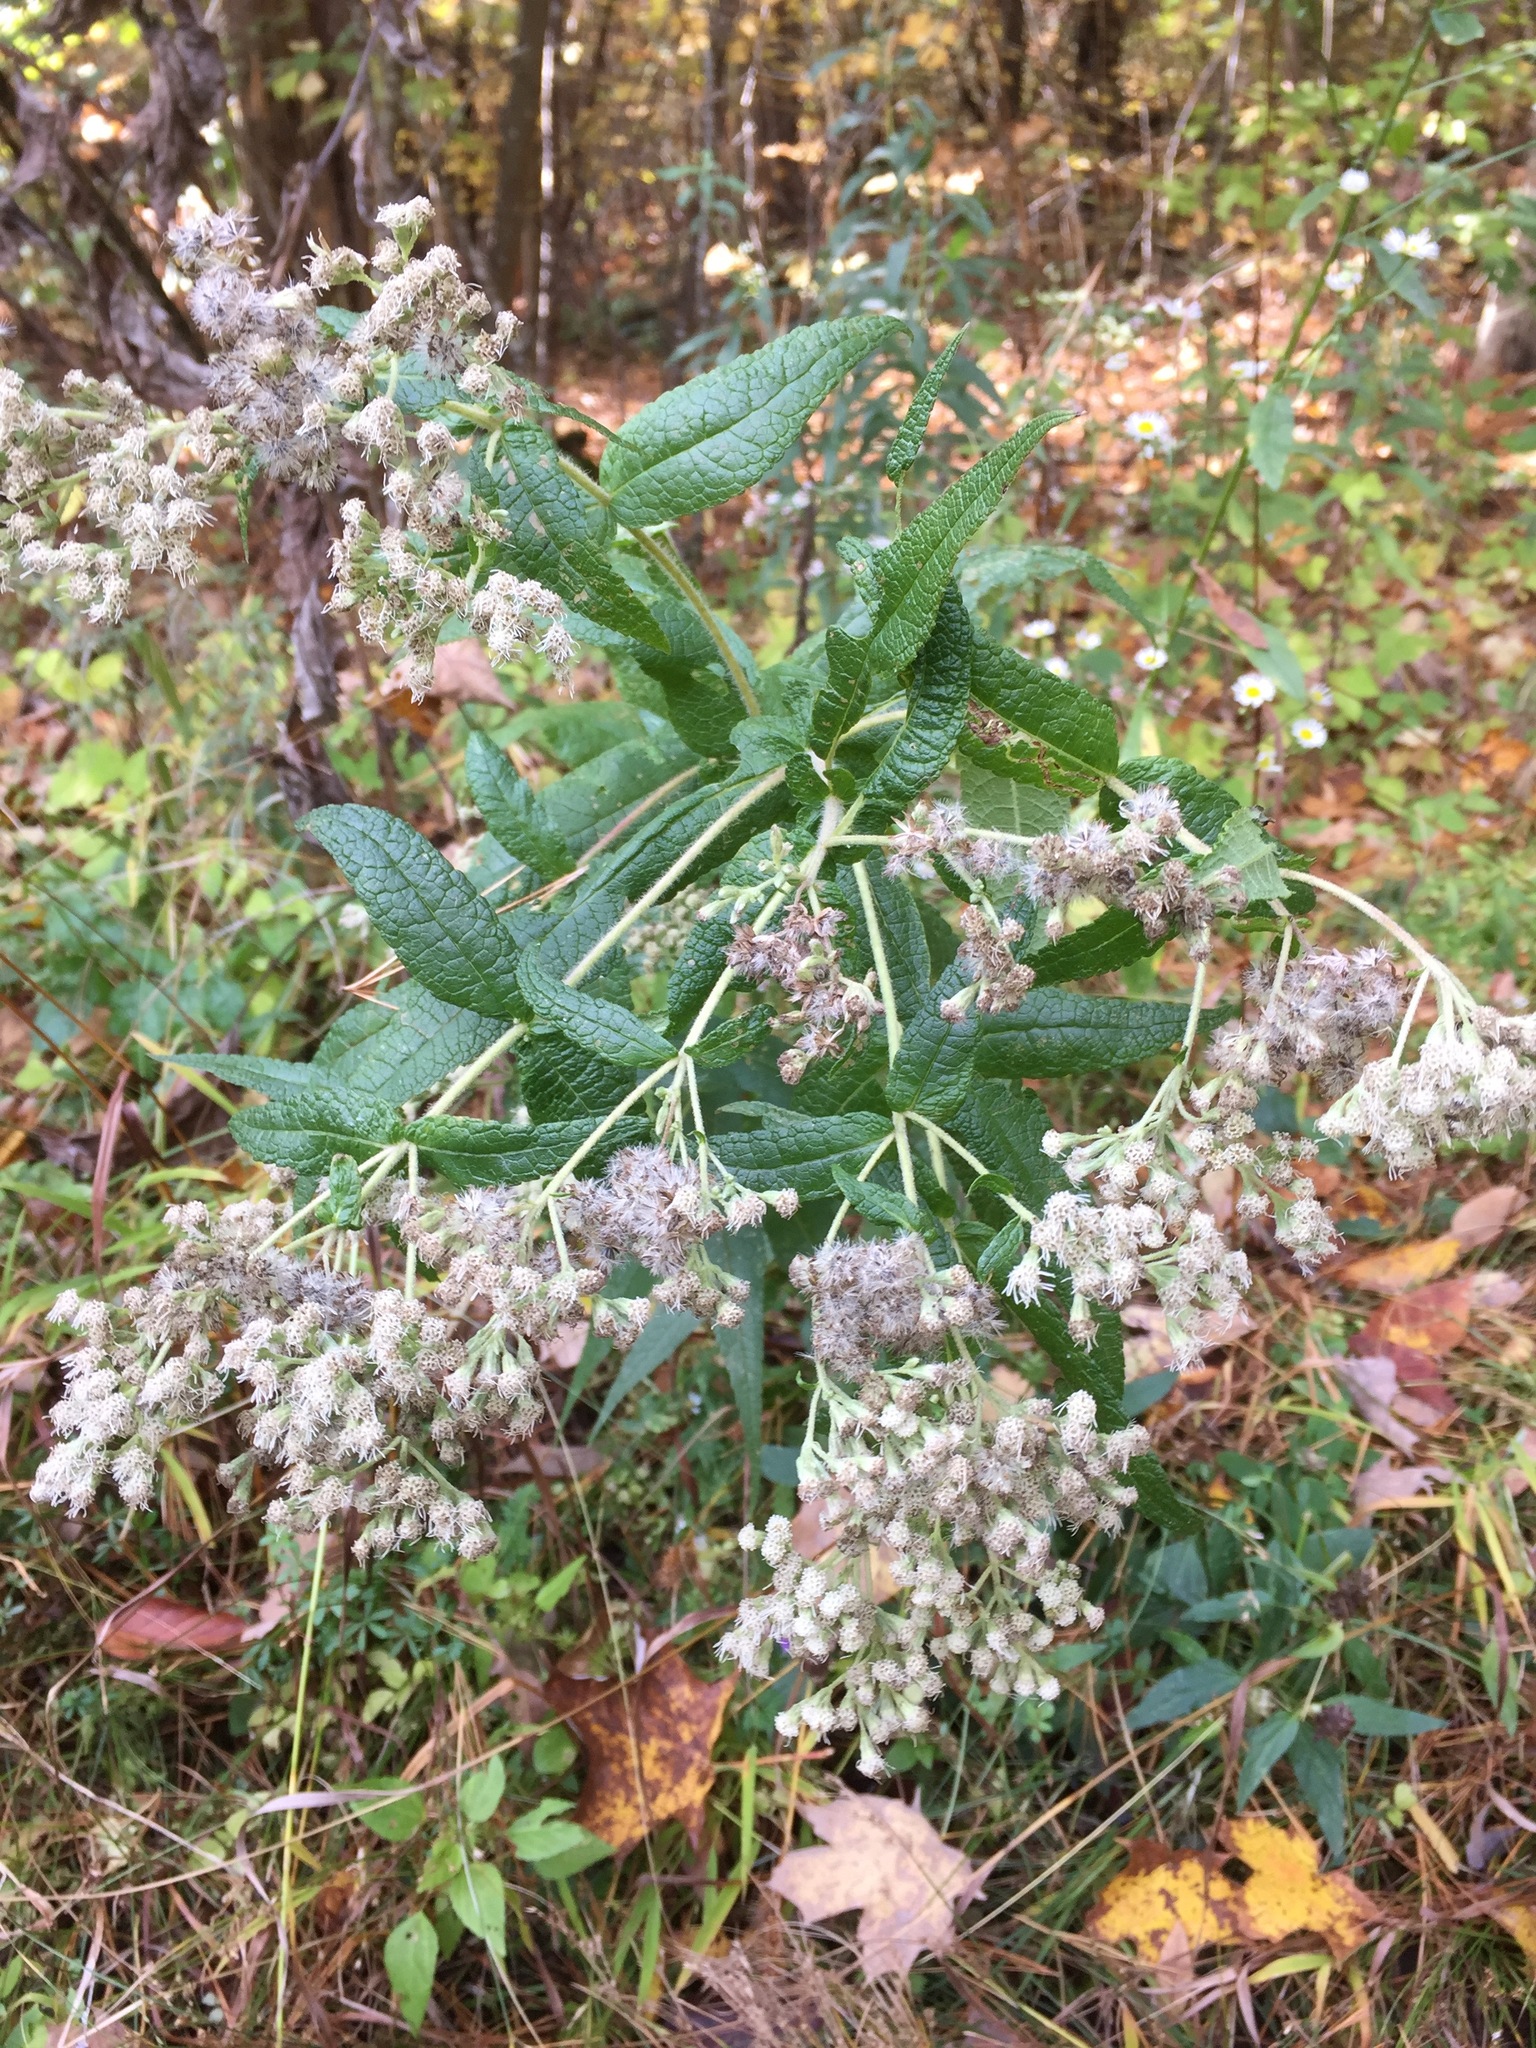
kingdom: Plantae
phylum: Tracheophyta
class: Magnoliopsida
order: Asterales
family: Asteraceae
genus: Eupatorium
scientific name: Eupatorium perfoliatum
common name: Boneset
